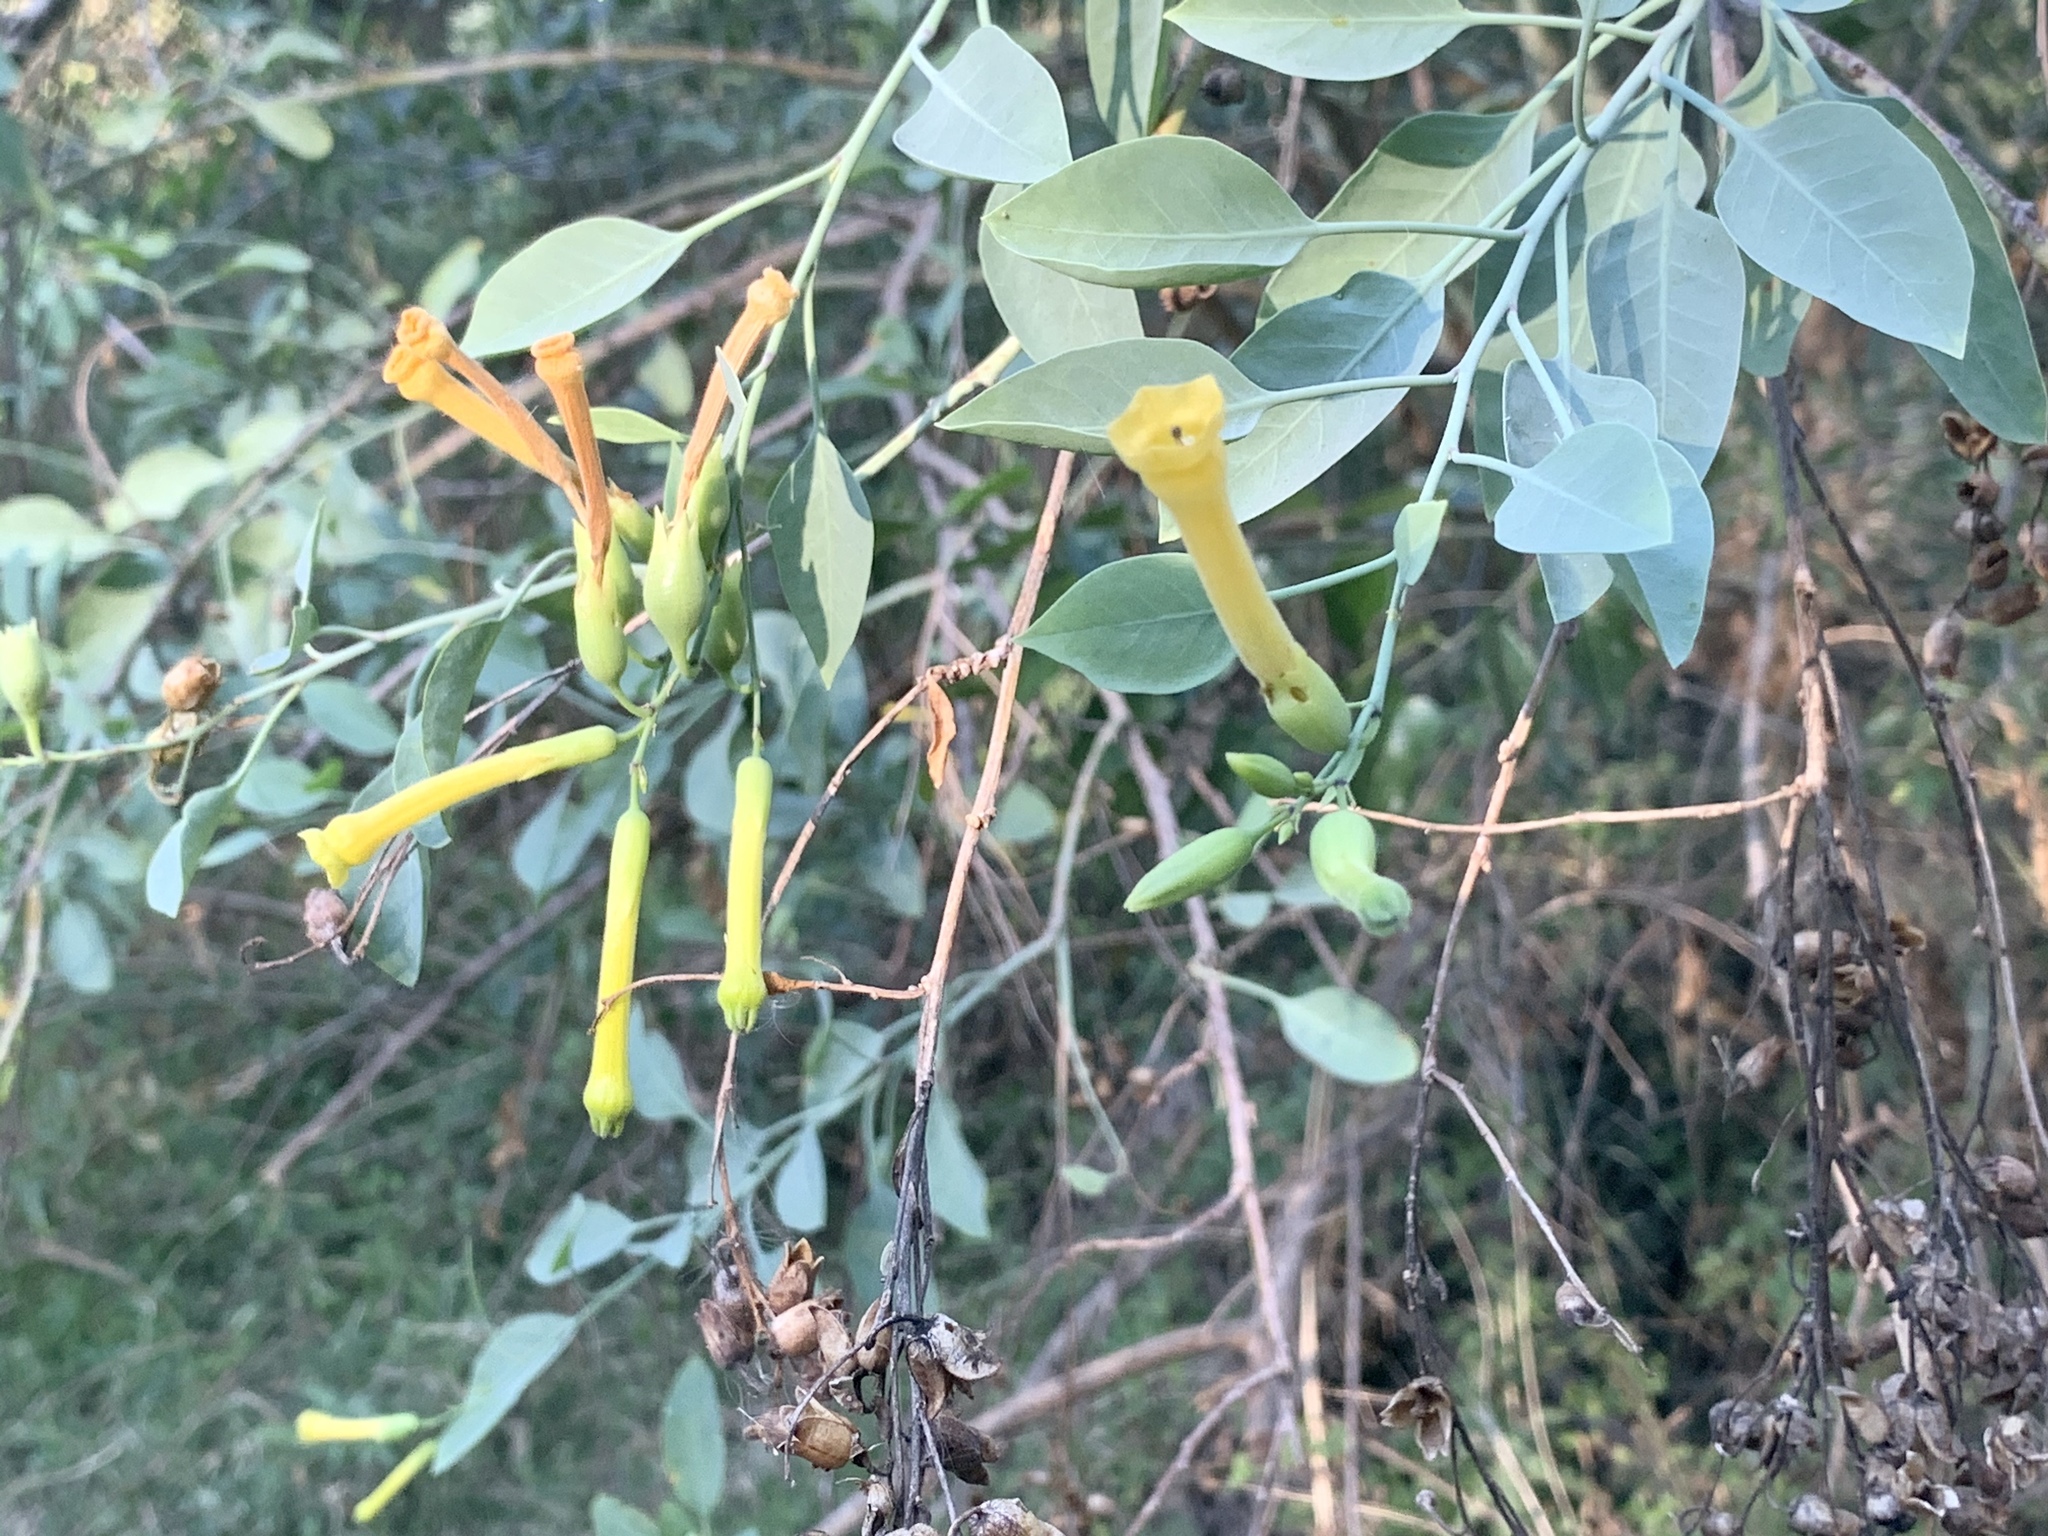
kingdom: Plantae
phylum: Tracheophyta
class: Magnoliopsida
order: Solanales
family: Solanaceae
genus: Nicotiana
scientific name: Nicotiana glauca
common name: Tree tobacco
